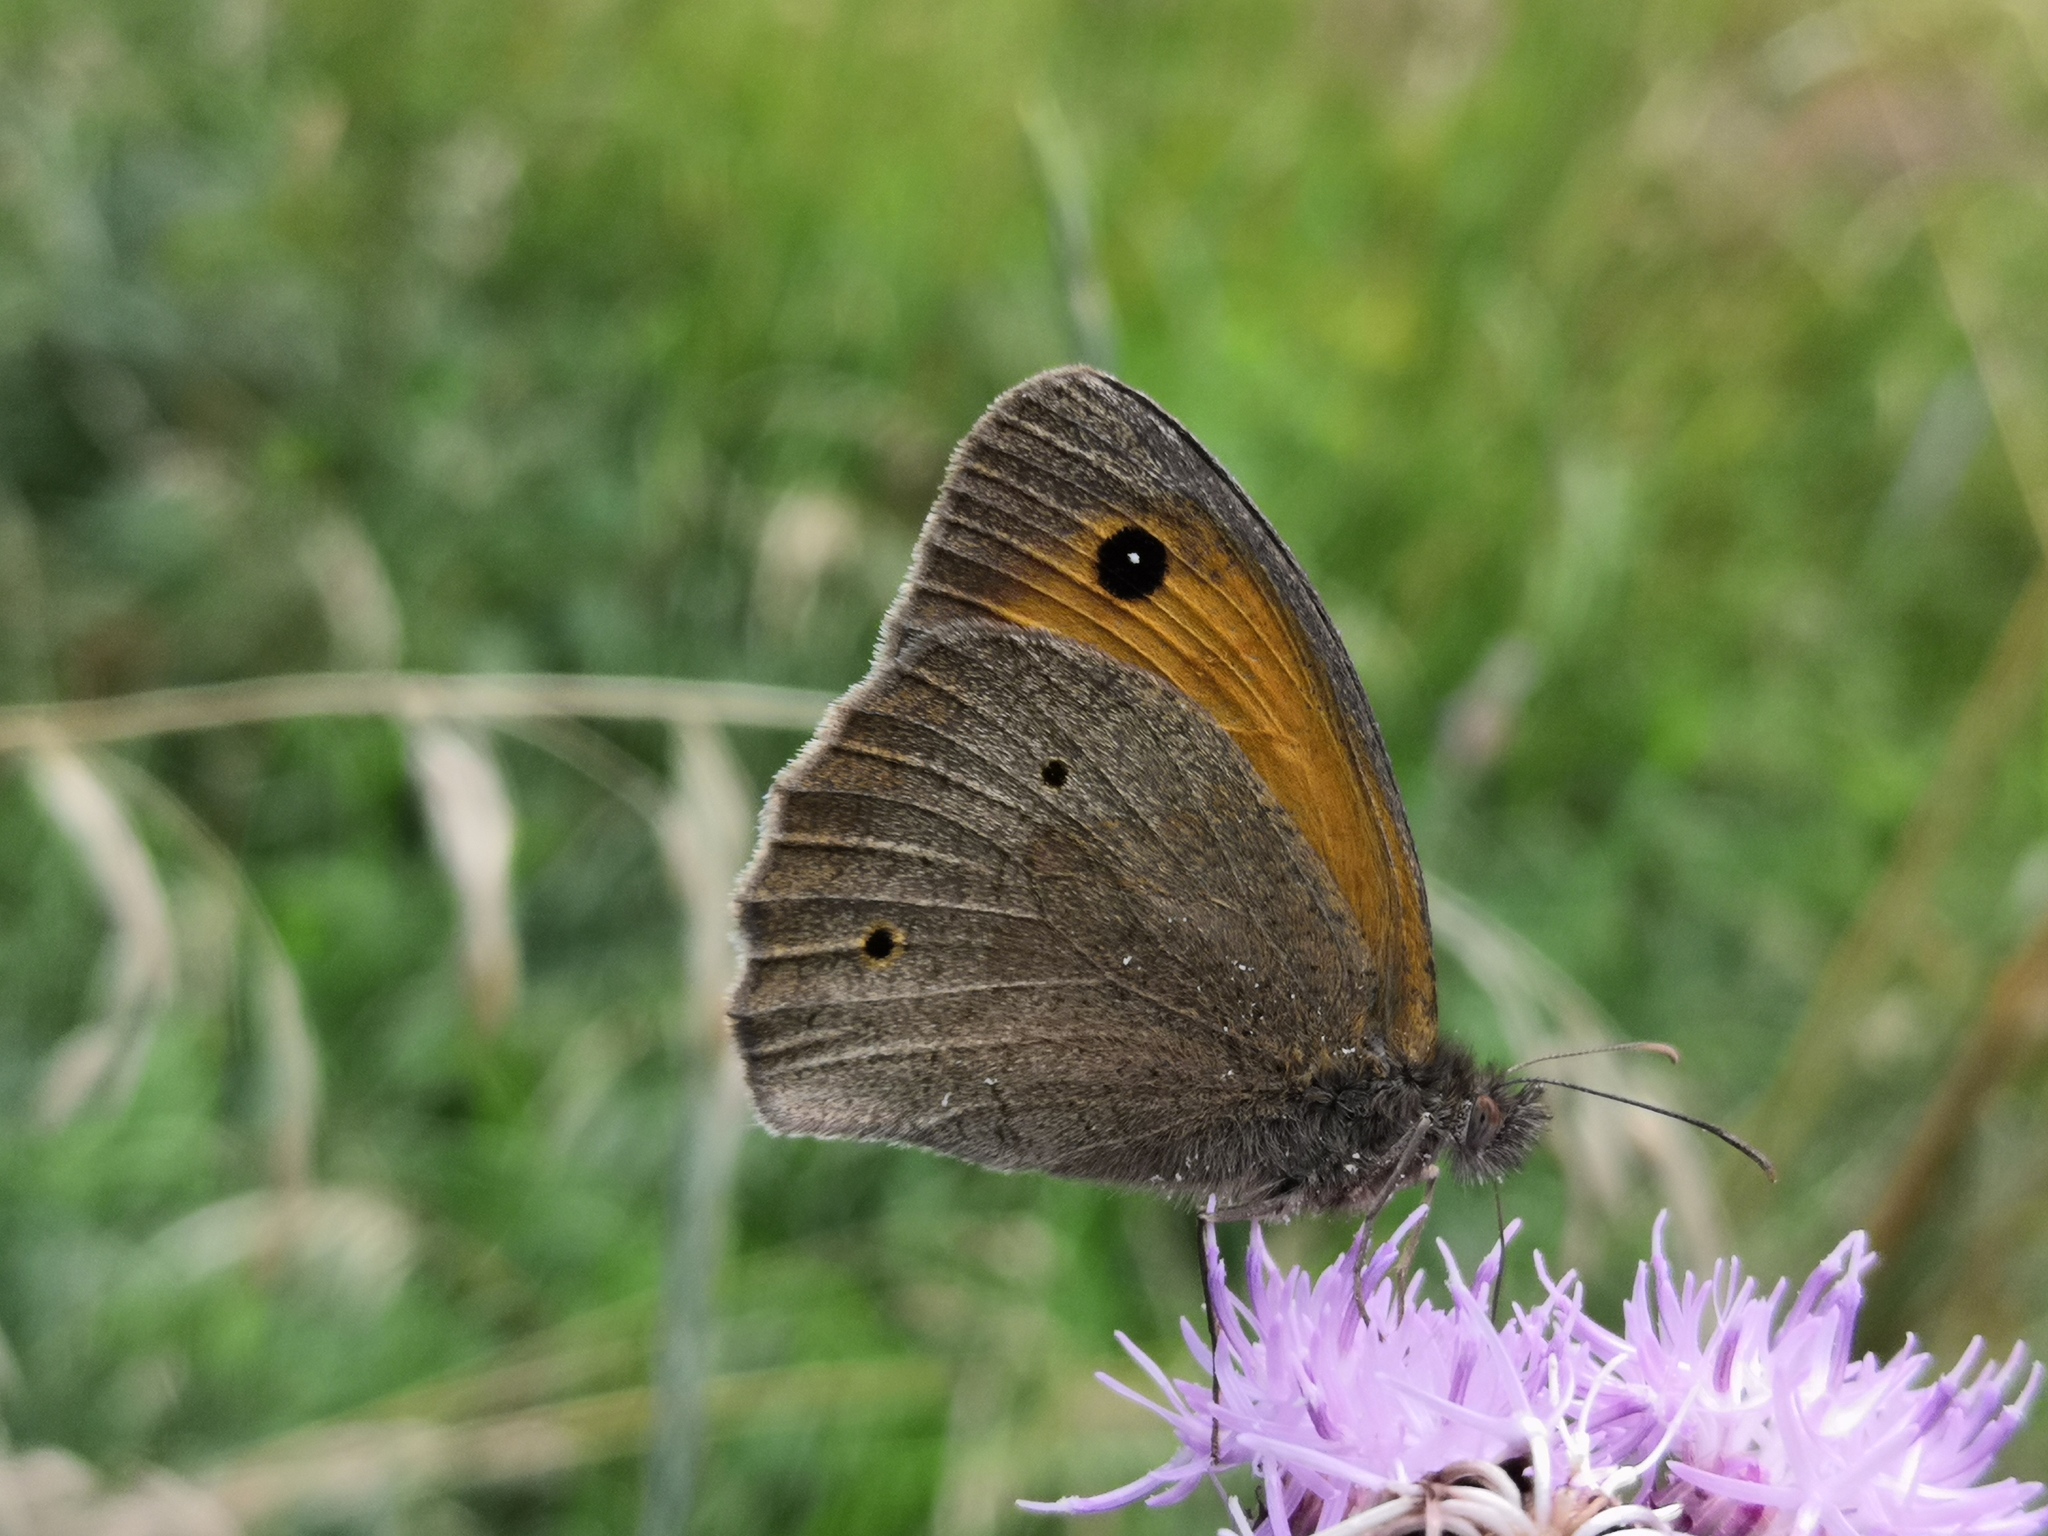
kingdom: Animalia
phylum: Arthropoda
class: Insecta
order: Lepidoptera
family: Nymphalidae
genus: Maniola
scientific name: Maniola jurtina
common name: Meadow brown
